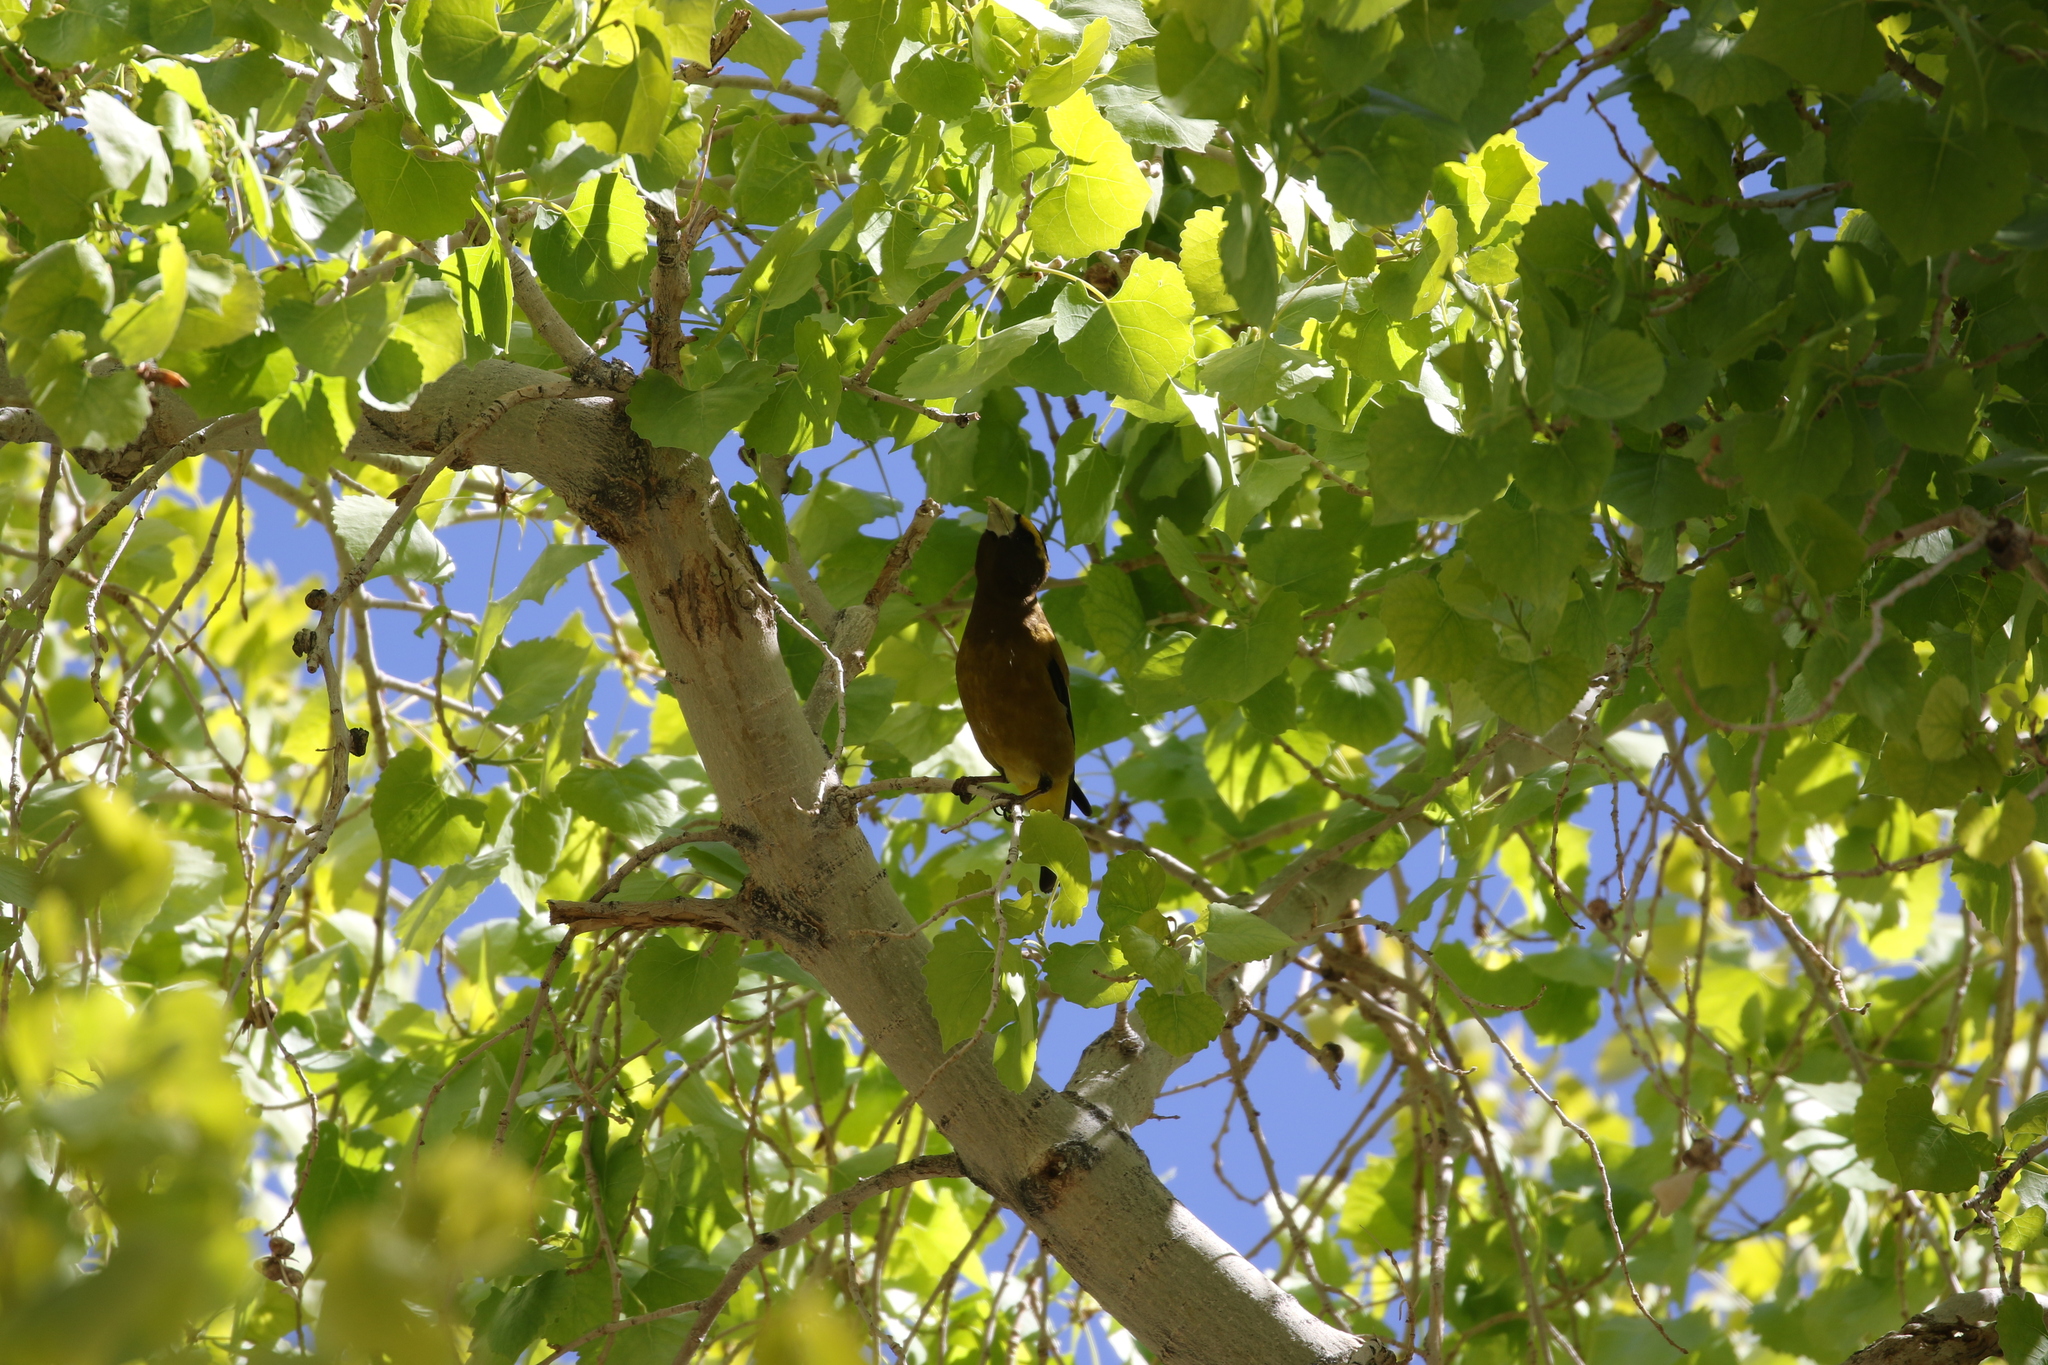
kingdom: Animalia
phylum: Chordata
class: Aves
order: Passeriformes
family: Fringillidae
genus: Hesperiphona
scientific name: Hesperiphona vespertina
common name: Evening grosbeak
